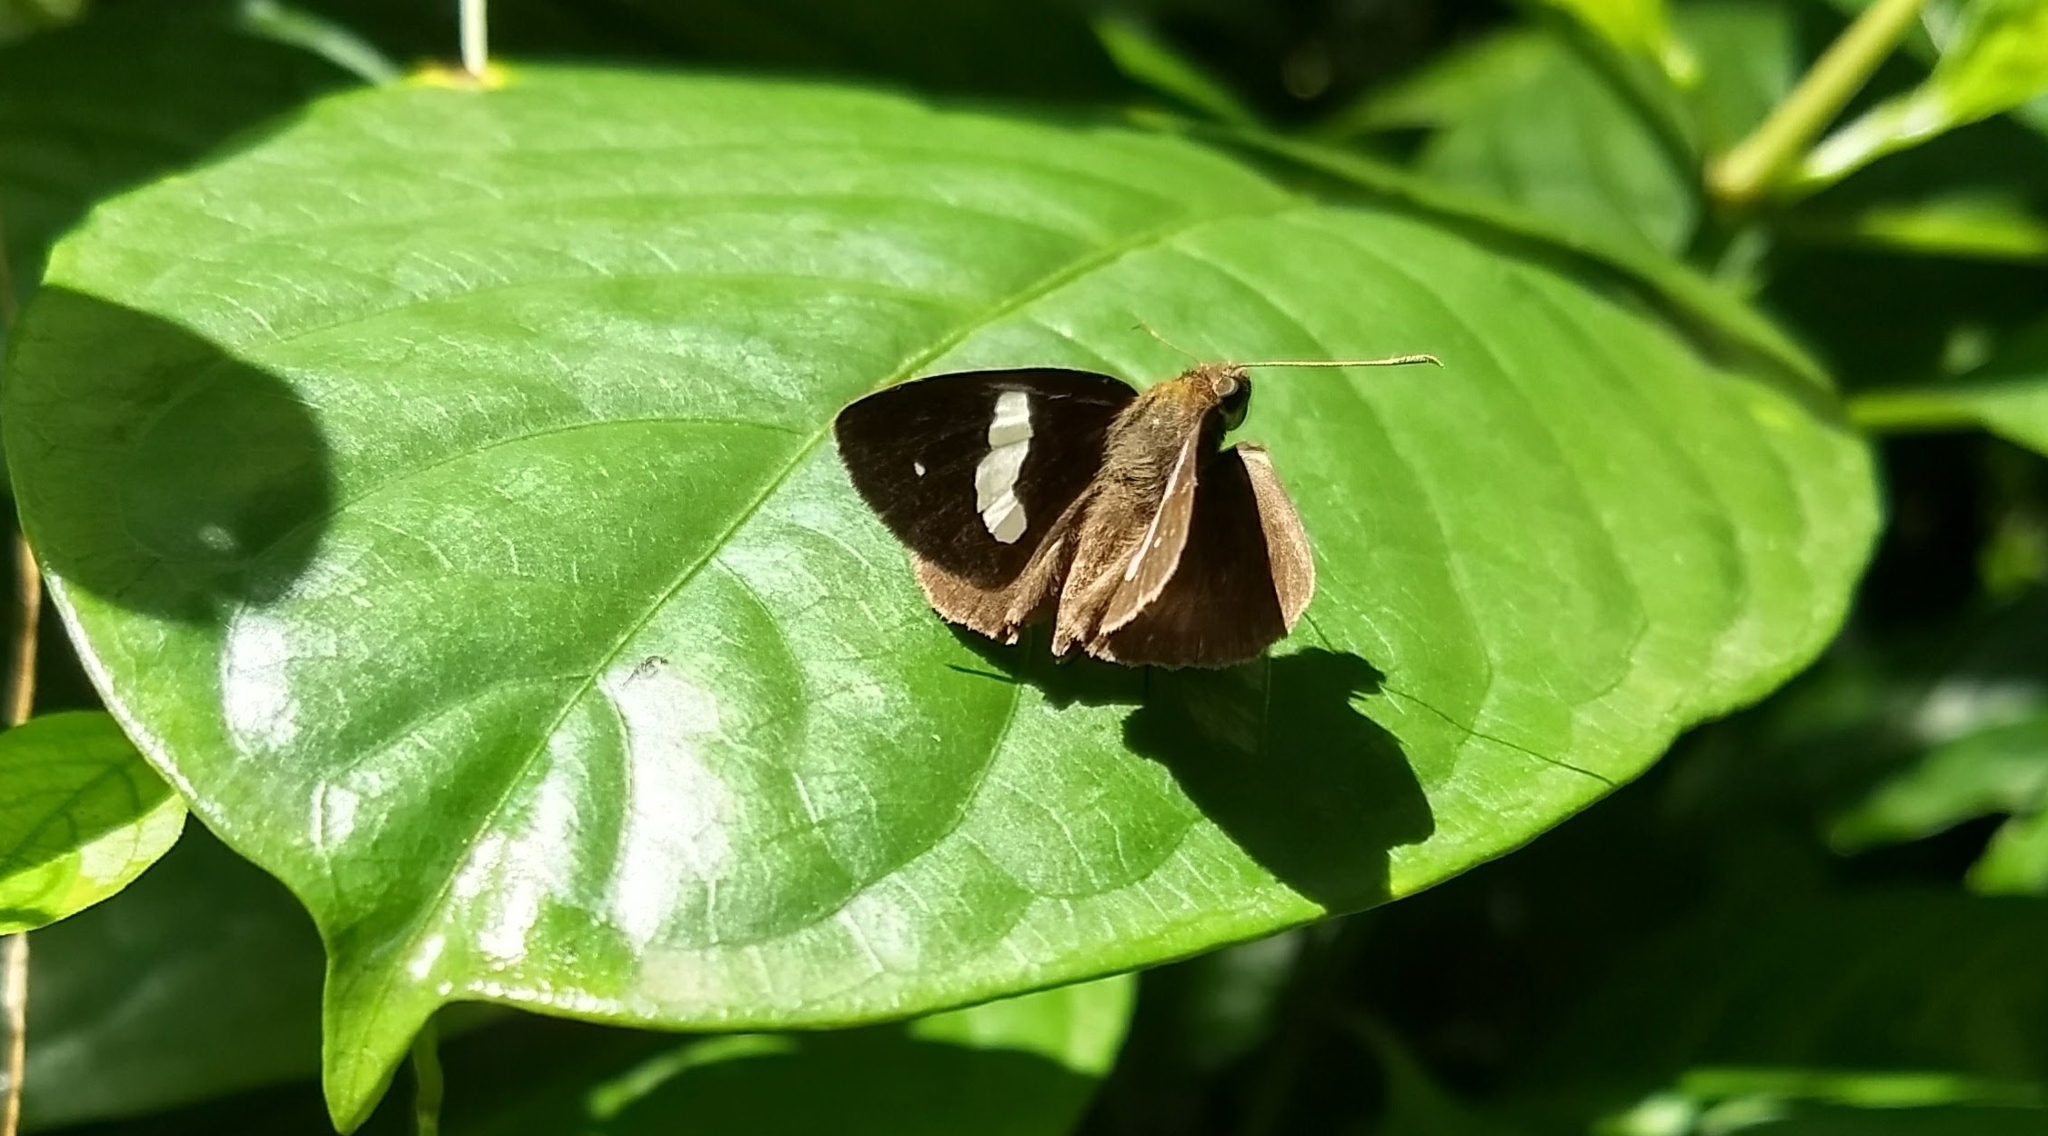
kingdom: Animalia
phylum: Arthropoda
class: Insecta
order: Lepidoptera
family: Hesperiidae
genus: Notocrypta
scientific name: Notocrypta paralysos
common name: Common banded demon
